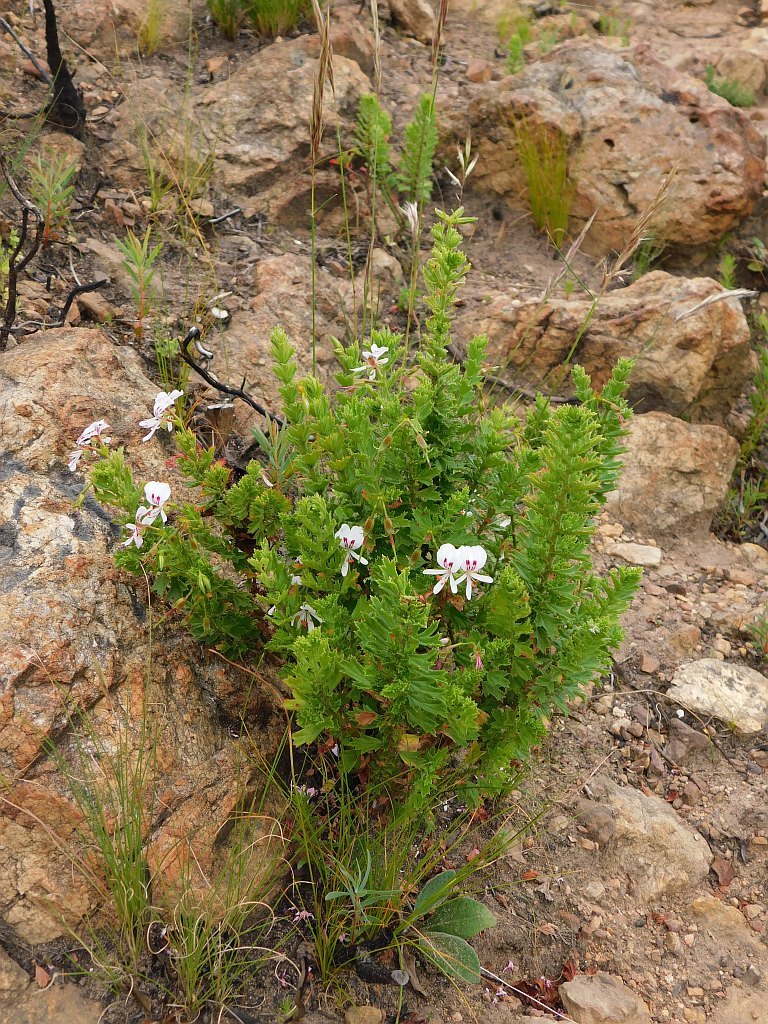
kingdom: Plantae
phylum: Tracheophyta
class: Magnoliopsida
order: Geraniales
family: Geraniaceae
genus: Pelargonium
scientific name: Pelargonium hermaniifolium
